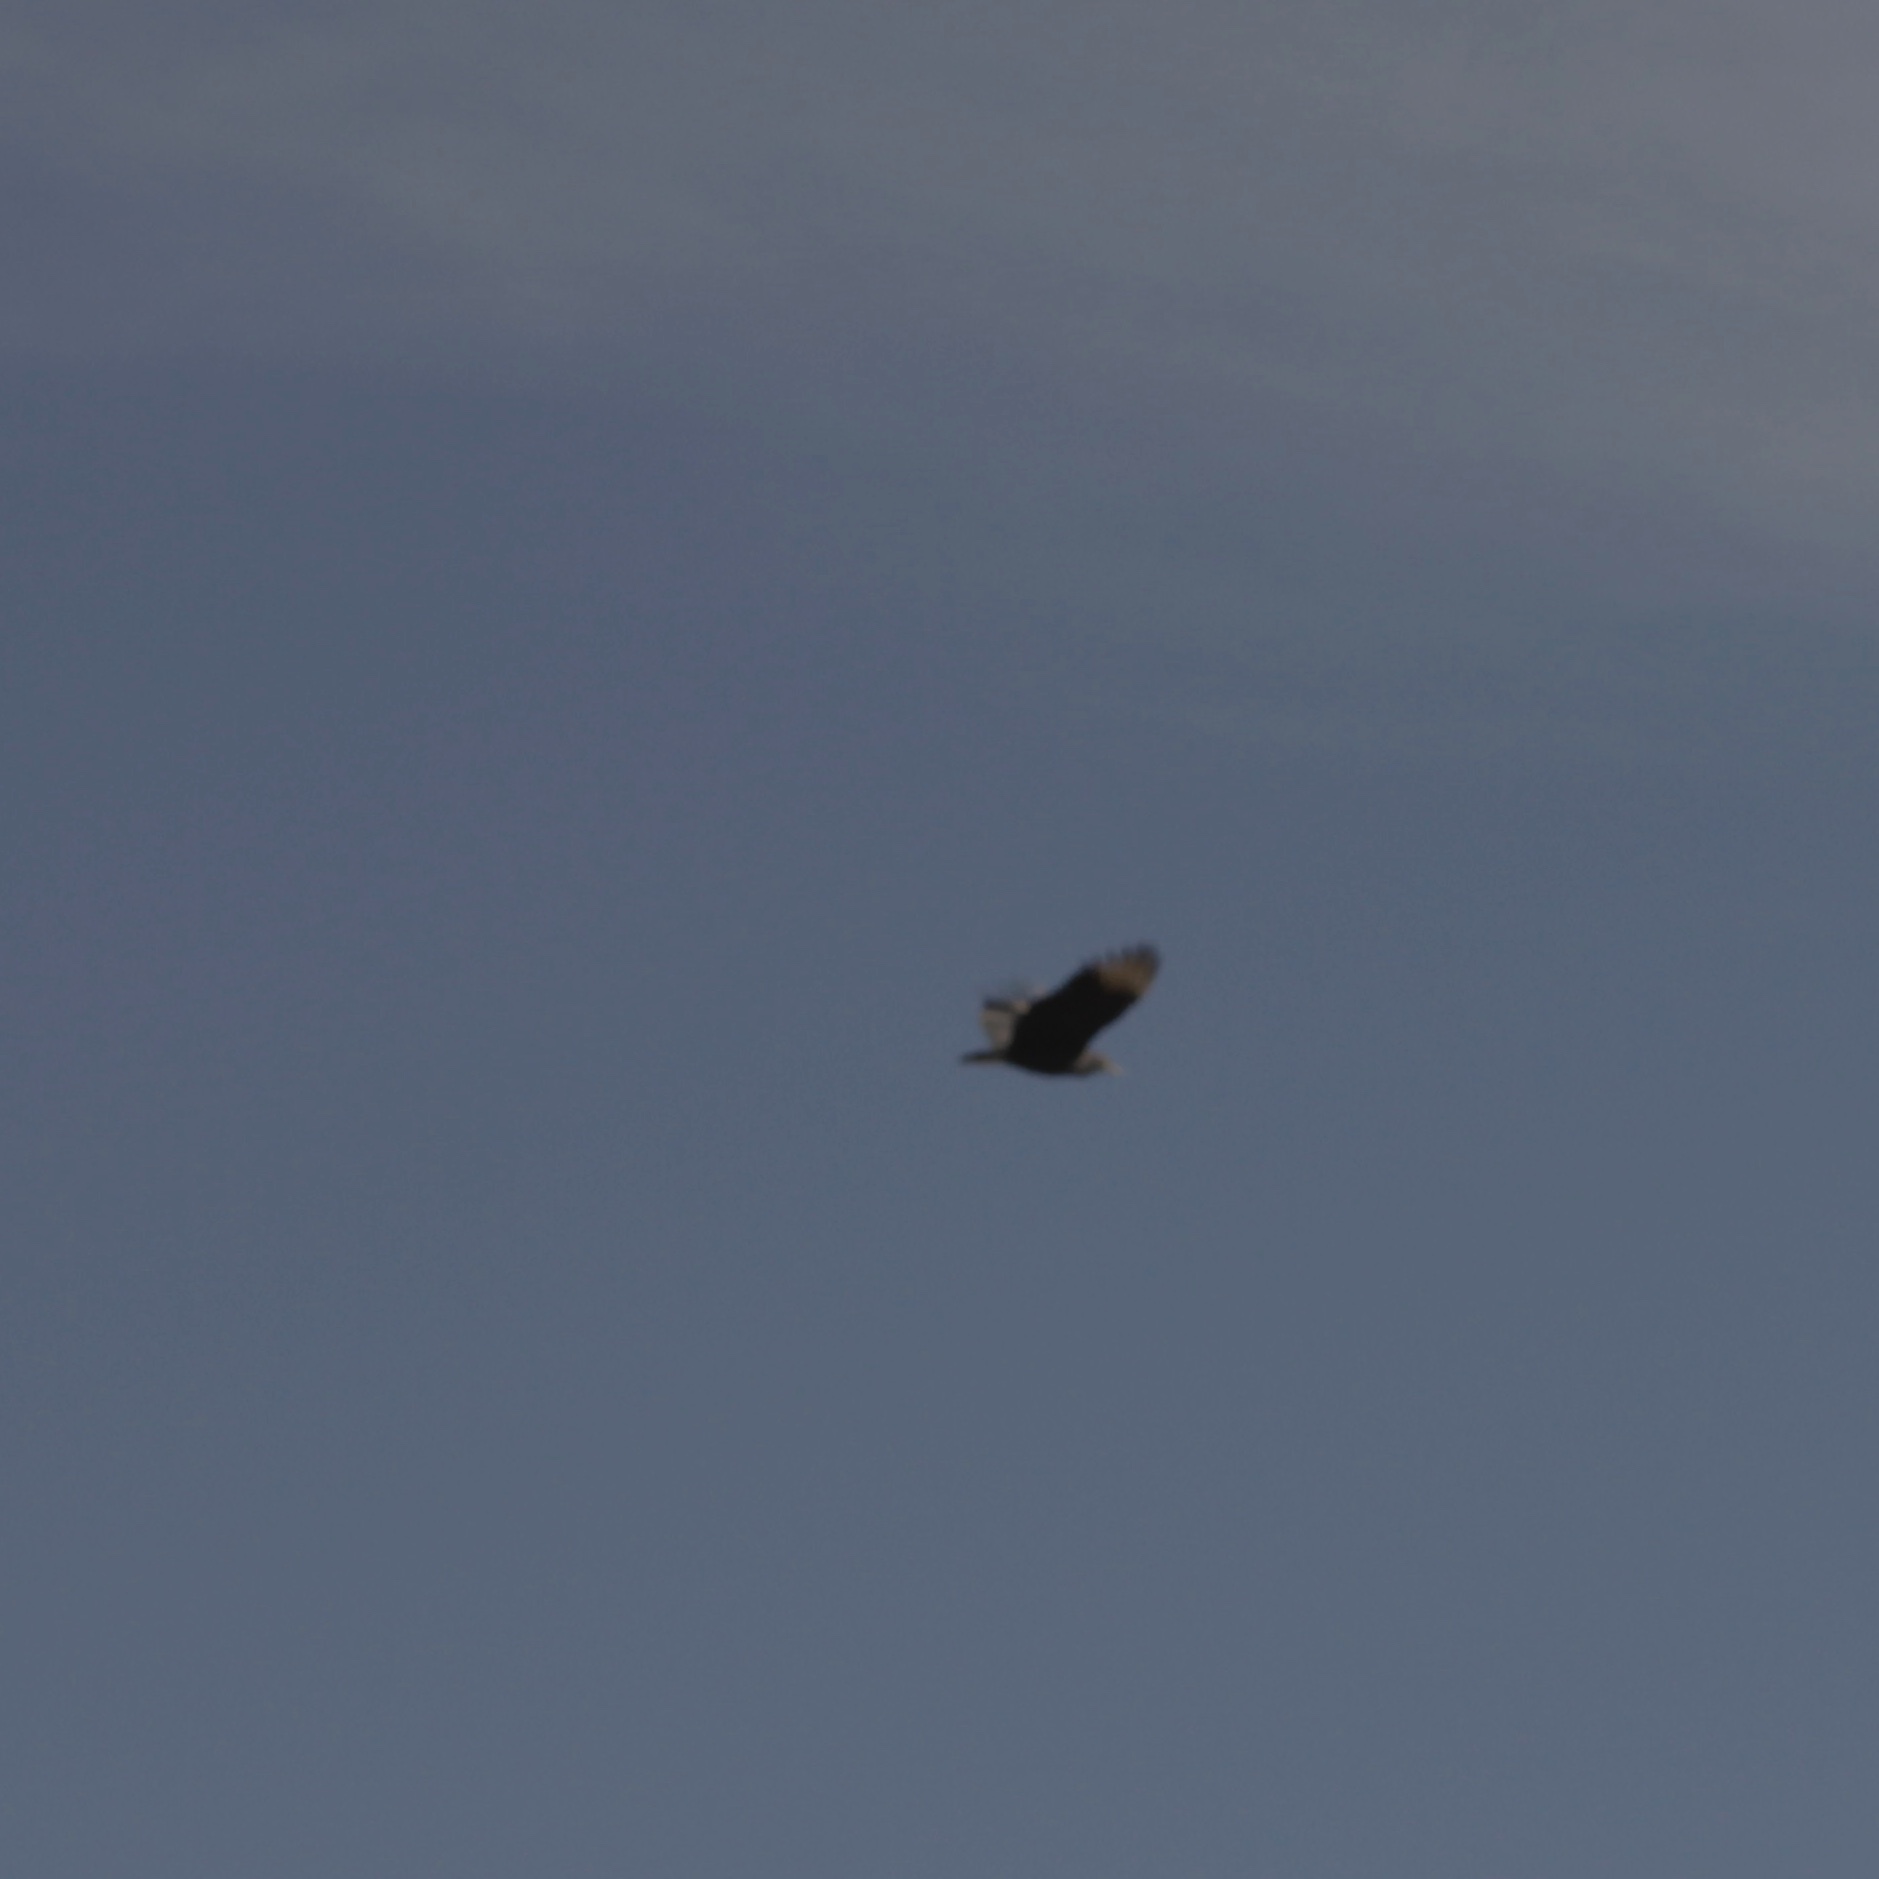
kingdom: Animalia
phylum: Chordata
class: Aves
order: Accipitriformes
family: Cathartidae
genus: Coragyps
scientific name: Coragyps atratus
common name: Black vulture
